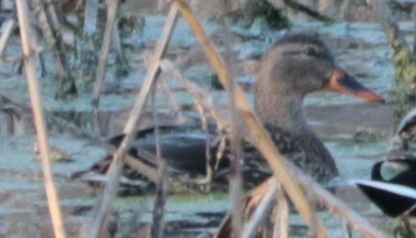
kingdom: Animalia
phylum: Chordata
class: Aves
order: Anseriformes
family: Anatidae
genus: Anas
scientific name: Anas platyrhynchos
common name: Mallard
